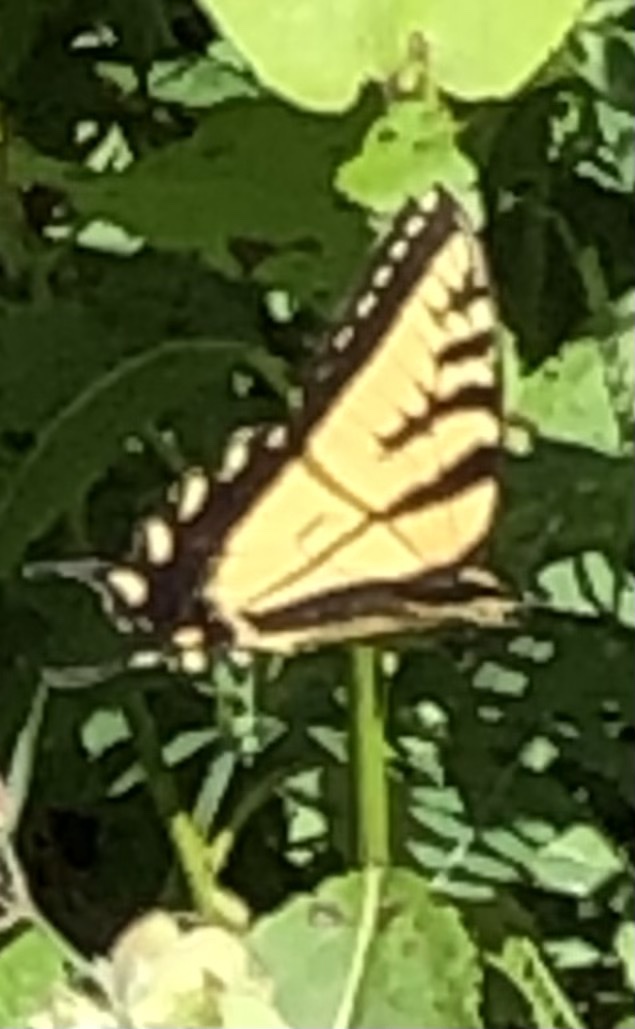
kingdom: Animalia
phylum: Arthropoda
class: Insecta
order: Lepidoptera
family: Papilionidae
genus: Papilio
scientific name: Papilio canadensis
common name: Canadian tiger swallowtail
